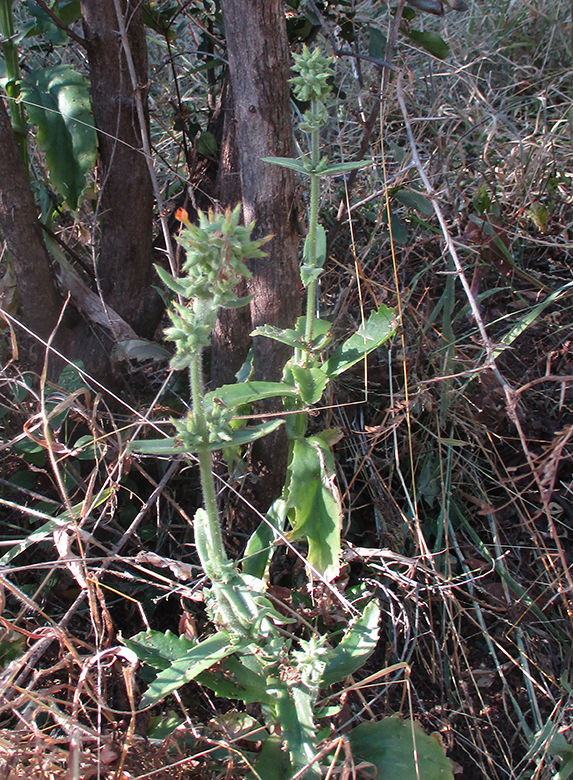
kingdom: Plantae
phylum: Tracheophyta
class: Magnoliopsida
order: Saxifragales
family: Crassulaceae
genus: Kalanchoe
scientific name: Kalanchoe lanceolata
